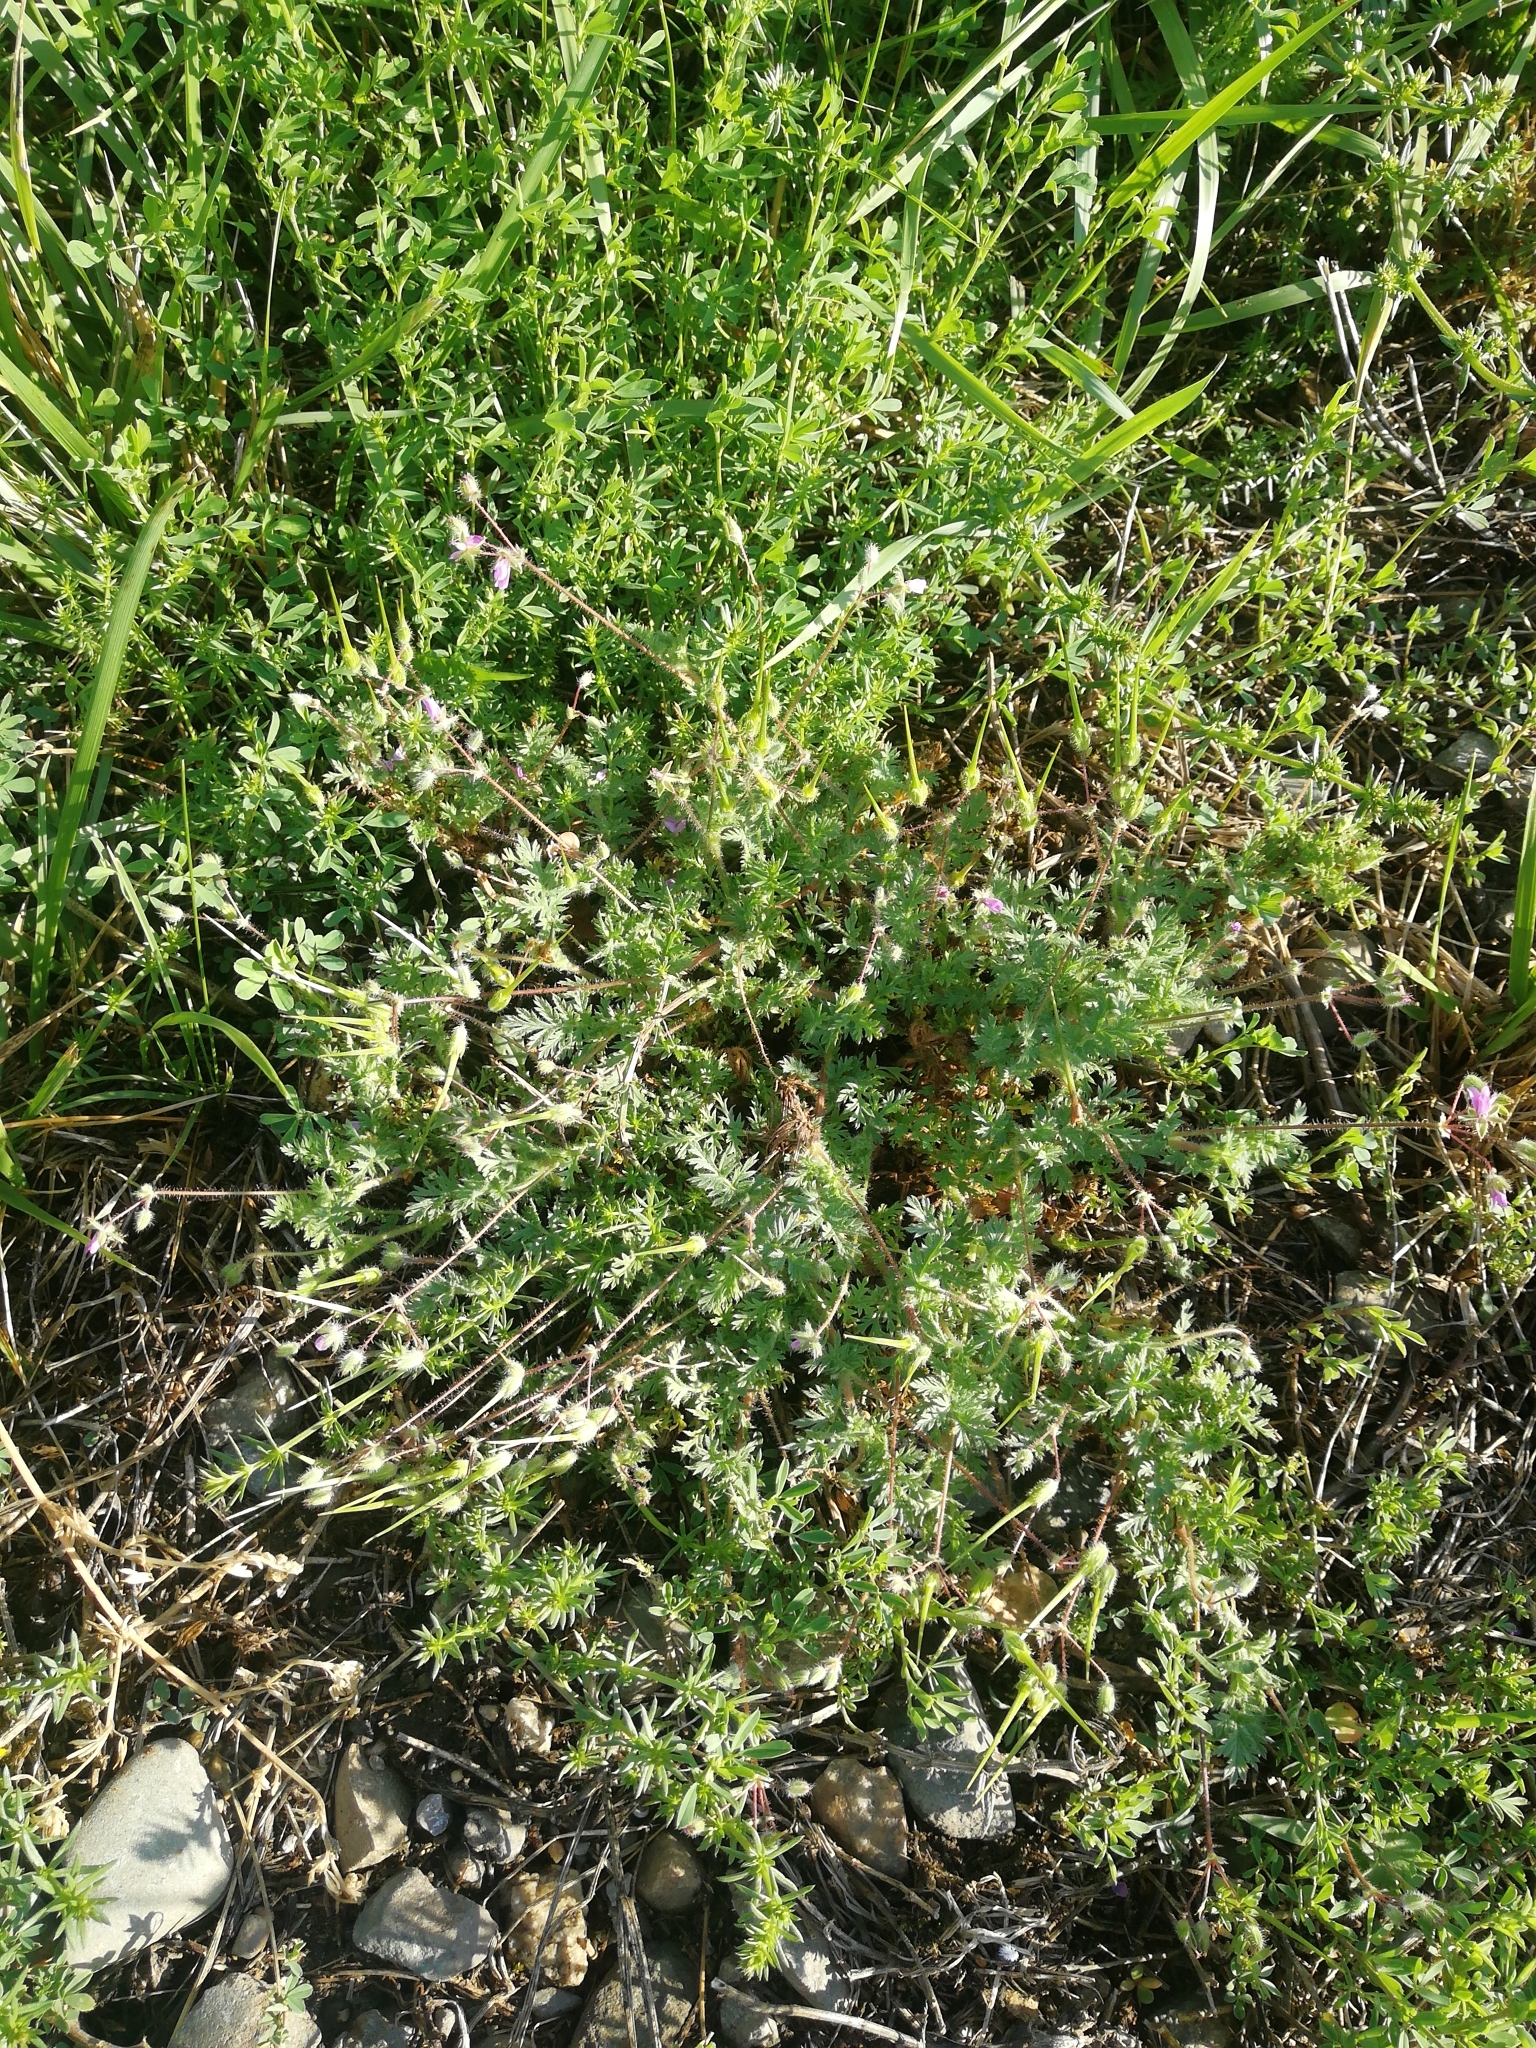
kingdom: Plantae
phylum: Tracheophyta
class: Magnoliopsida
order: Geraniales
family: Geraniaceae
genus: Geranium
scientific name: Geranium pusillum
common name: Small geranium
